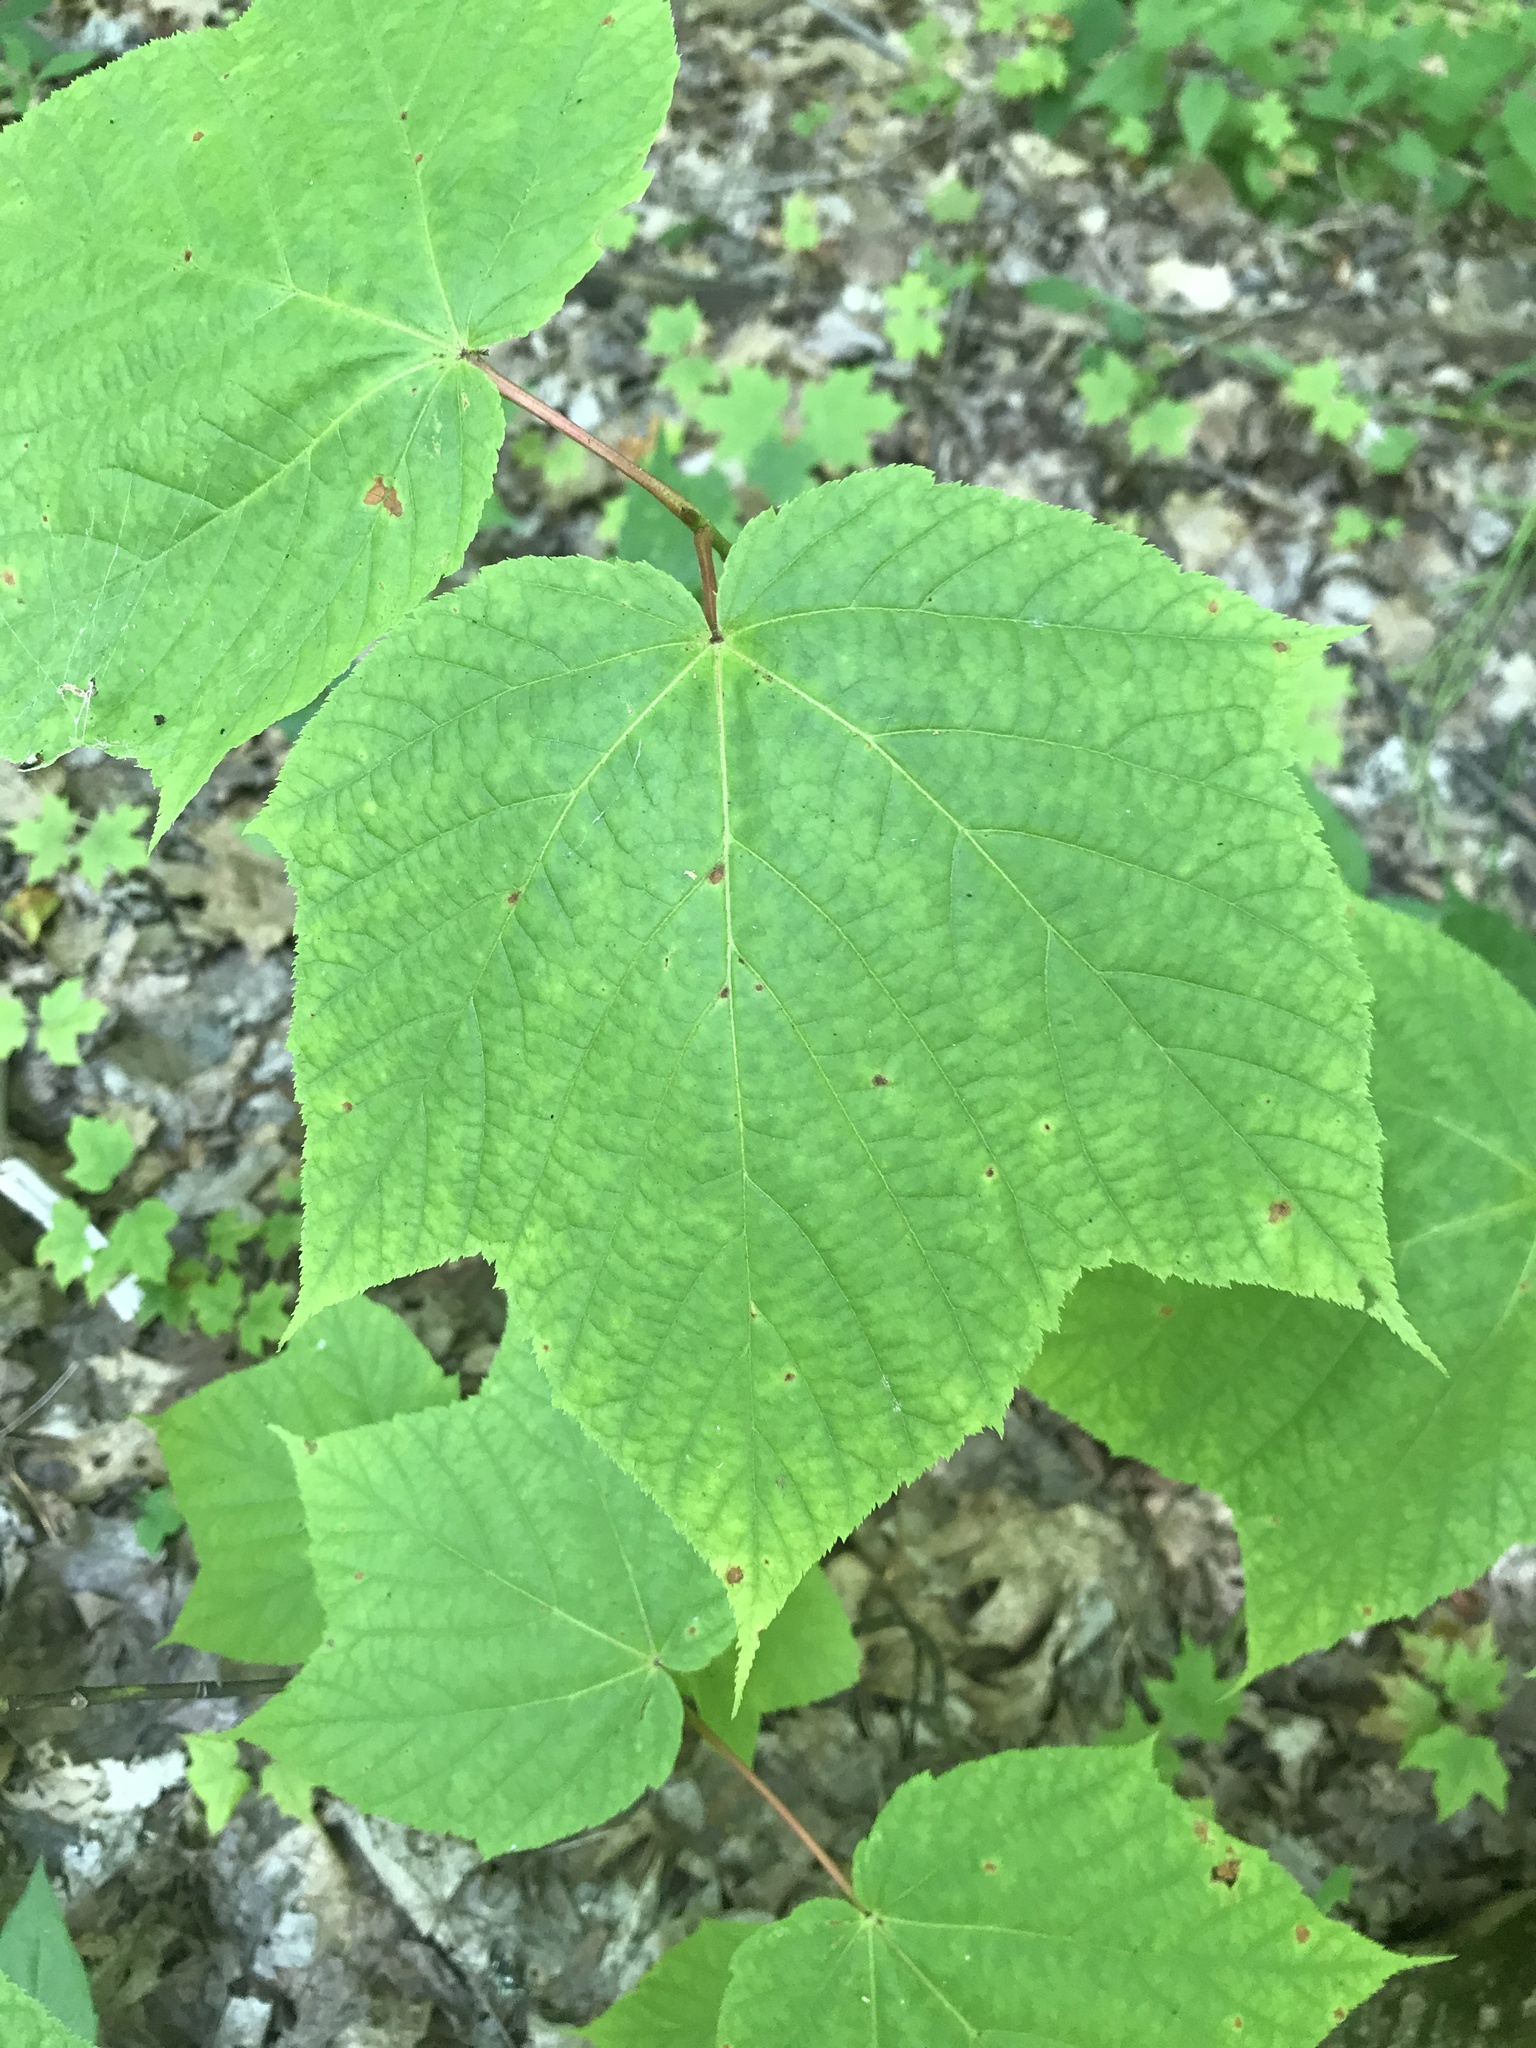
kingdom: Plantae
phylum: Tracheophyta
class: Magnoliopsida
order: Sapindales
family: Sapindaceae
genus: Acer
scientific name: Acer pensylvanicum
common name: Moosewood
